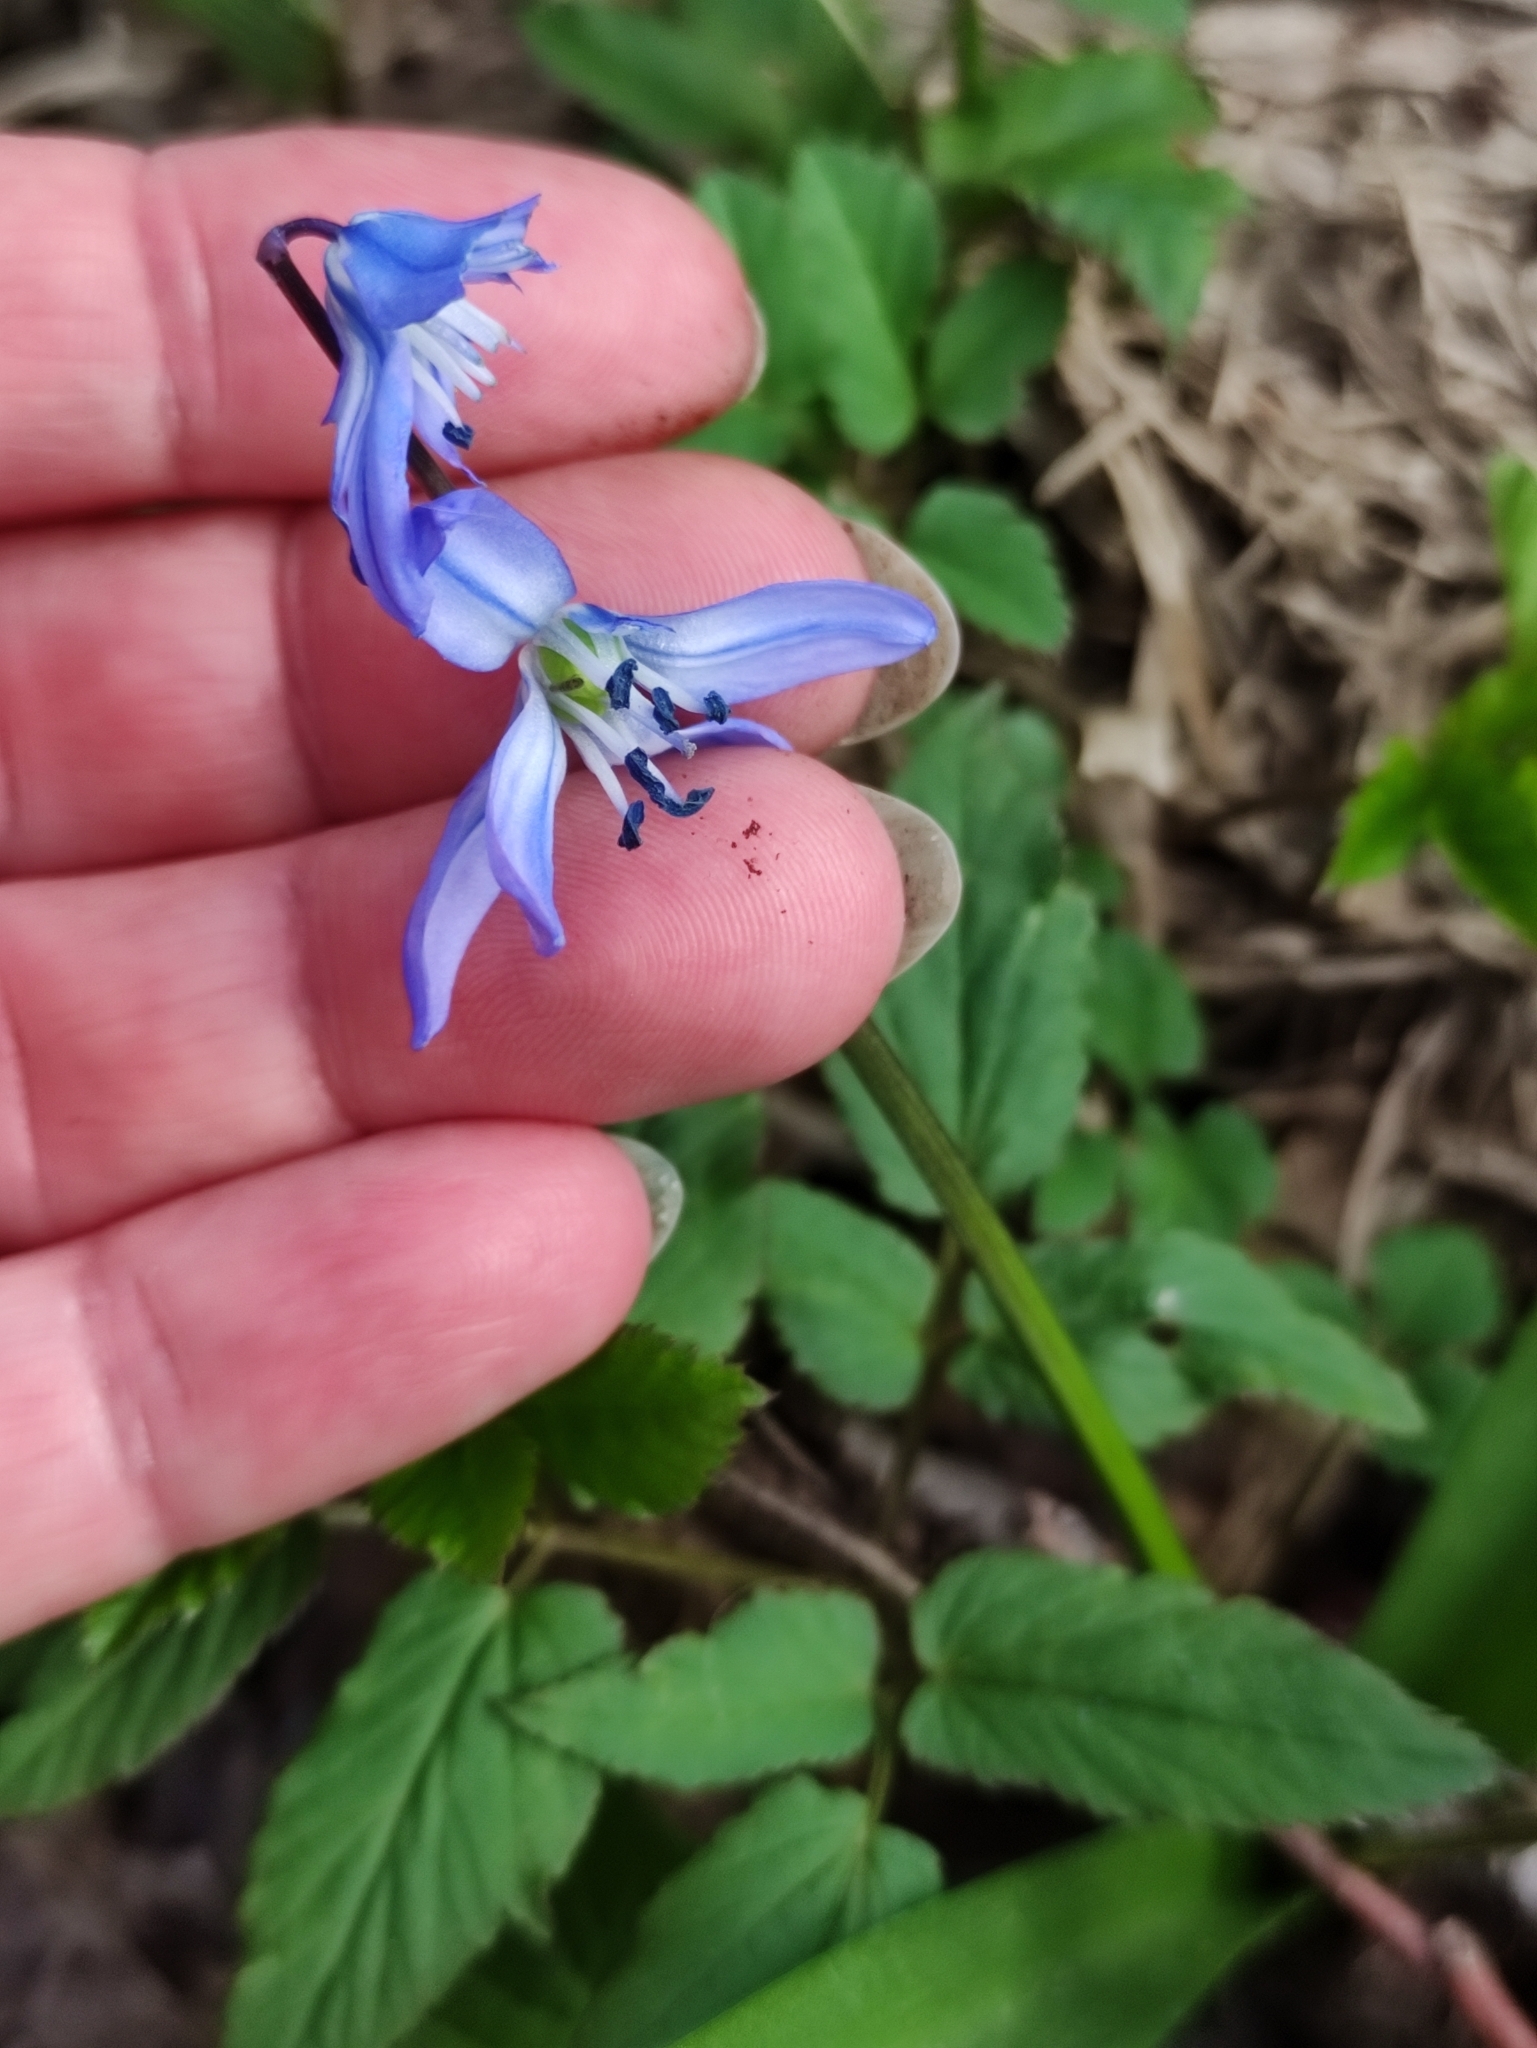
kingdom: Plantae
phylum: Tracheophyta
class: Liliopsida
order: Asparagales
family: Asparagaceae
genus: Scilla
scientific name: Scilla siberica
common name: Siberian squill
